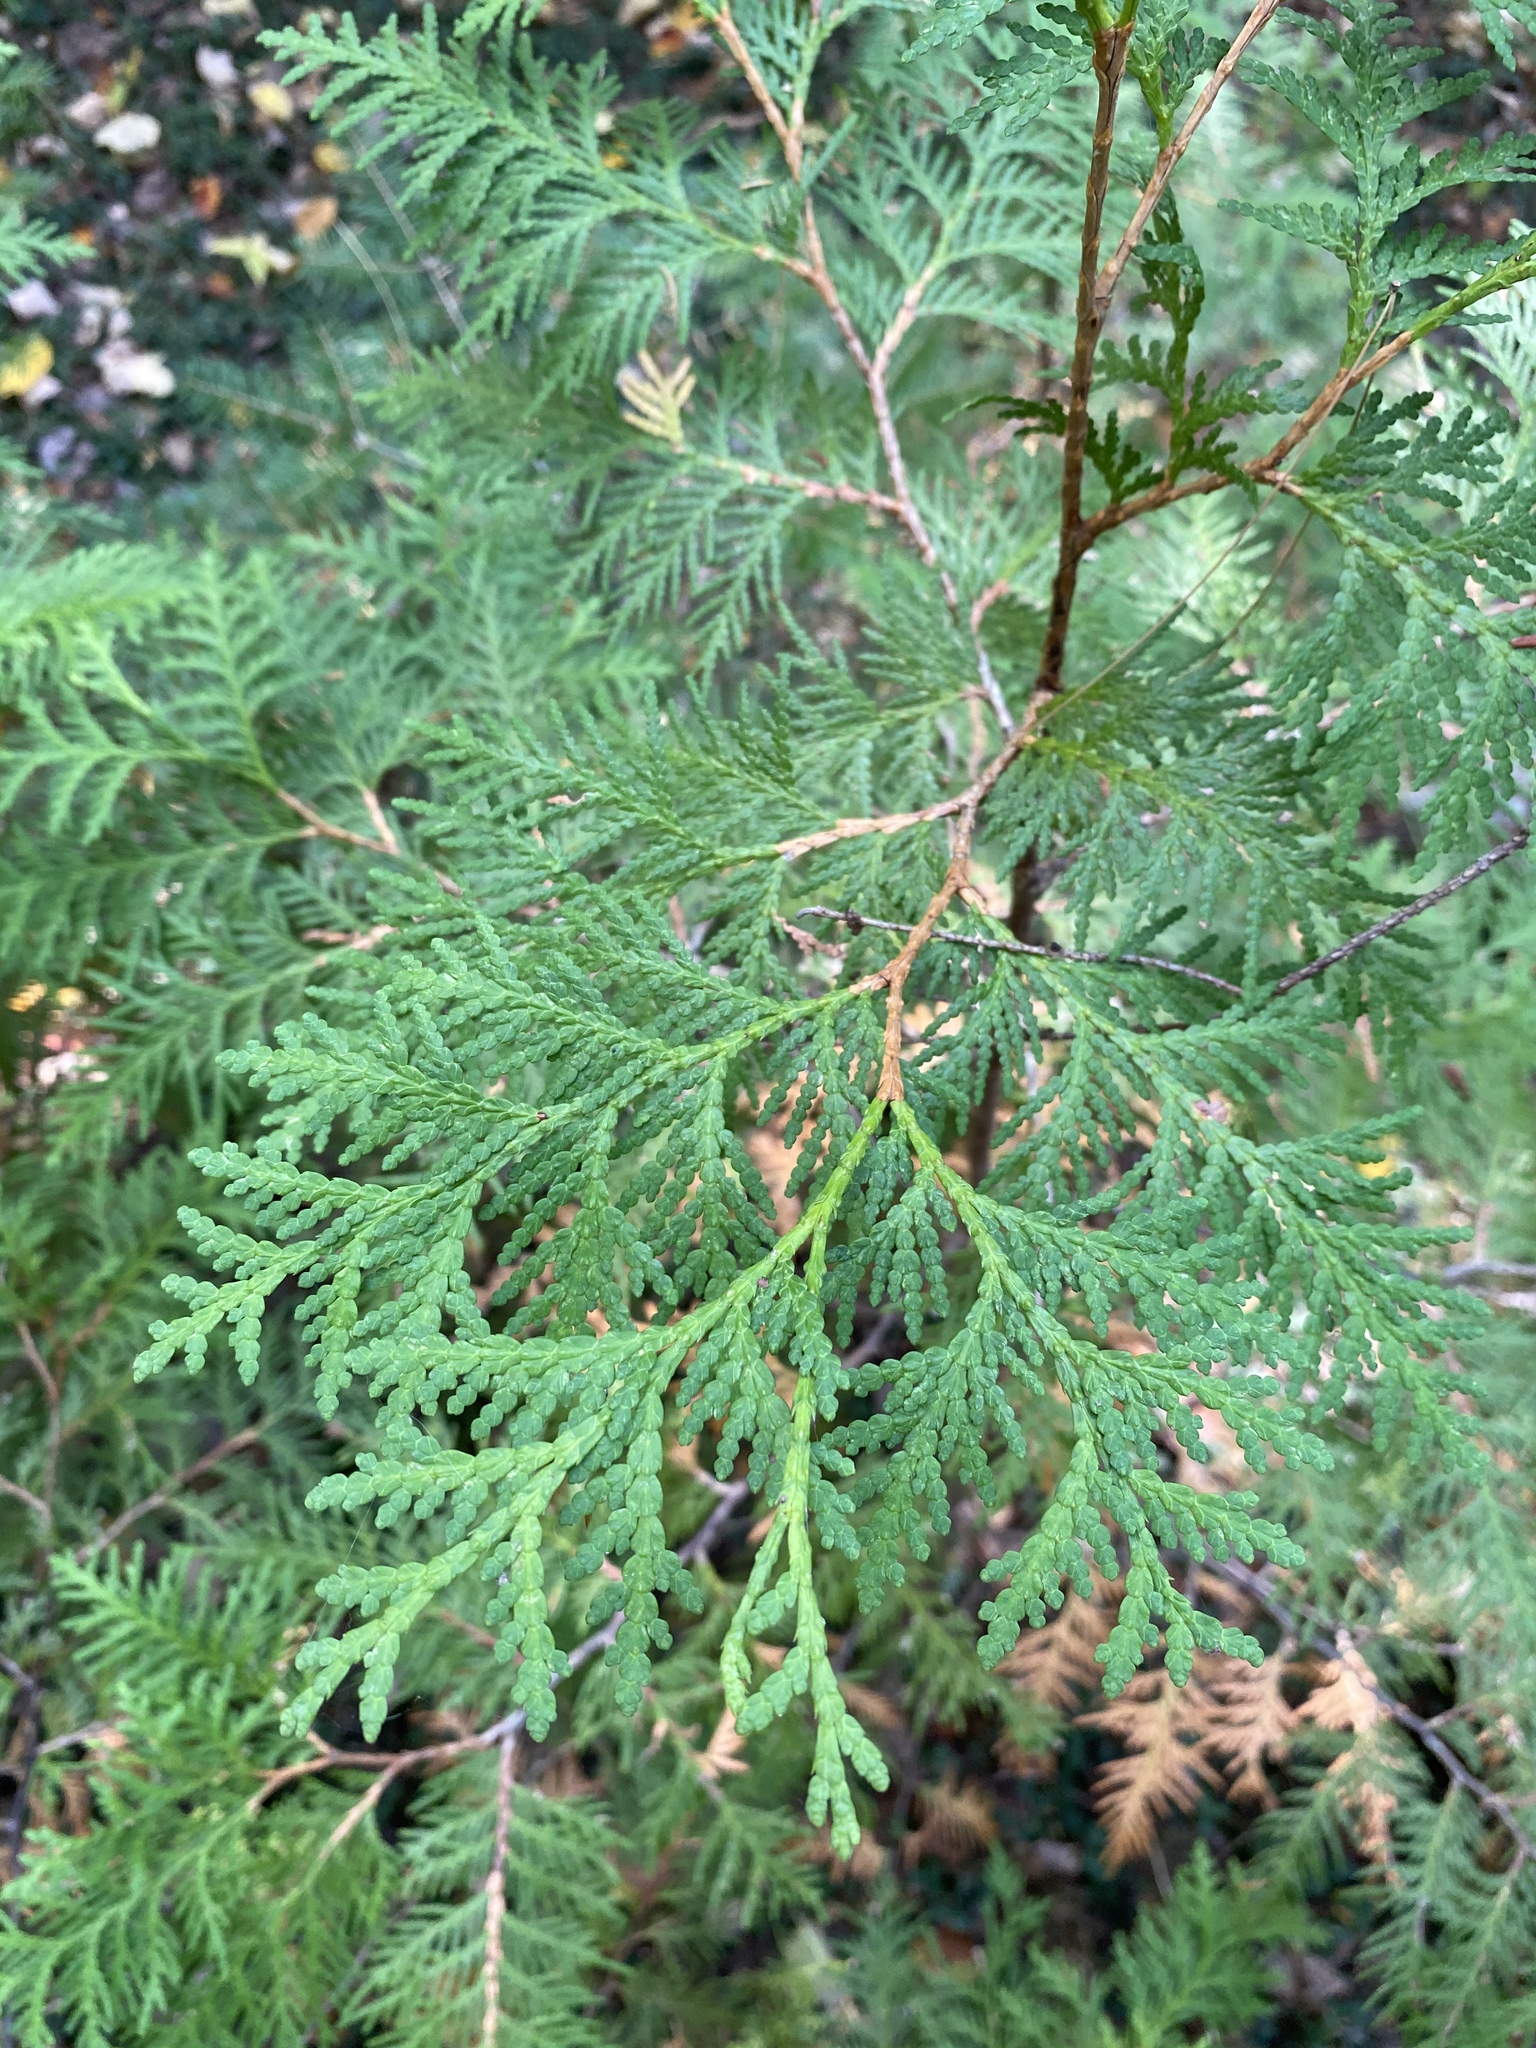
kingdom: Plantae
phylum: Tracheophyta
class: Pinopsida
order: Pinales
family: Cupressaceae
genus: Thuja
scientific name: Thuja occidentalis
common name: Northern white-cedar
